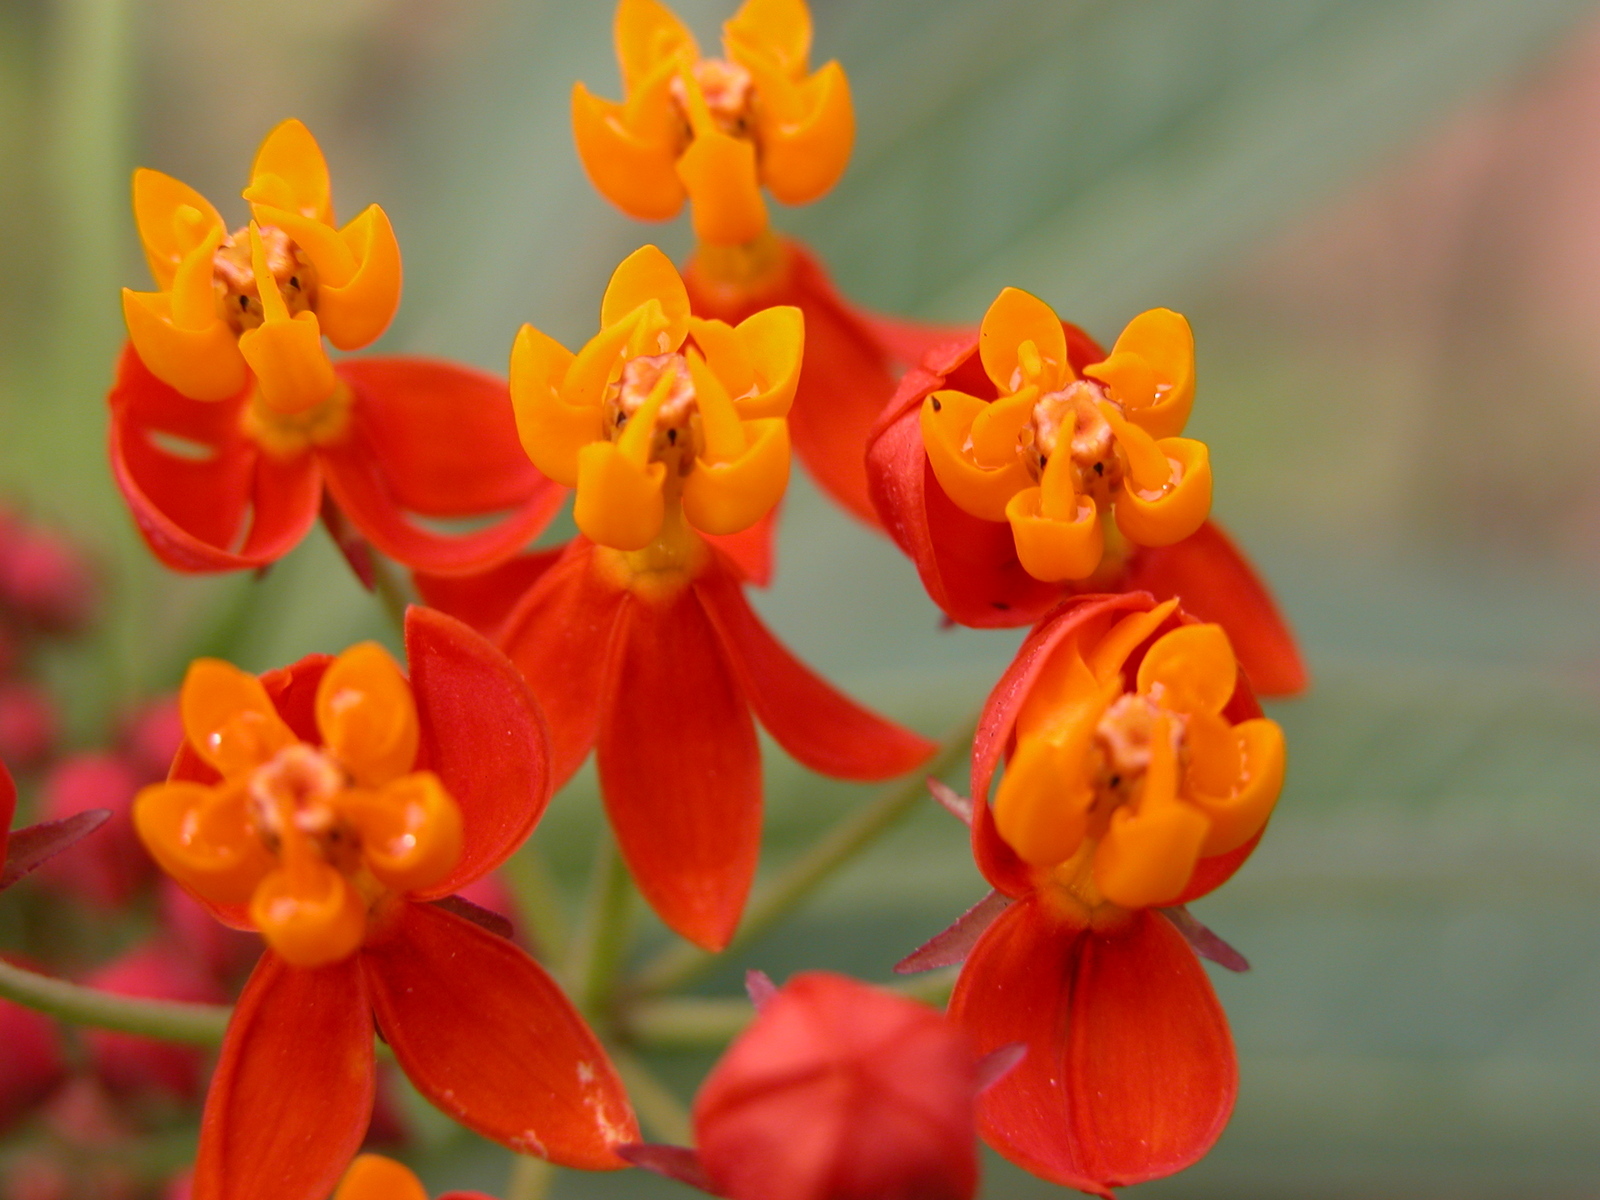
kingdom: Plantae
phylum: Tracheophyta
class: Magnoliopsida
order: Gentianales
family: Apocynaceae
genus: Asclepias
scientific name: Asclepias curassavica
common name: Bloodflower
